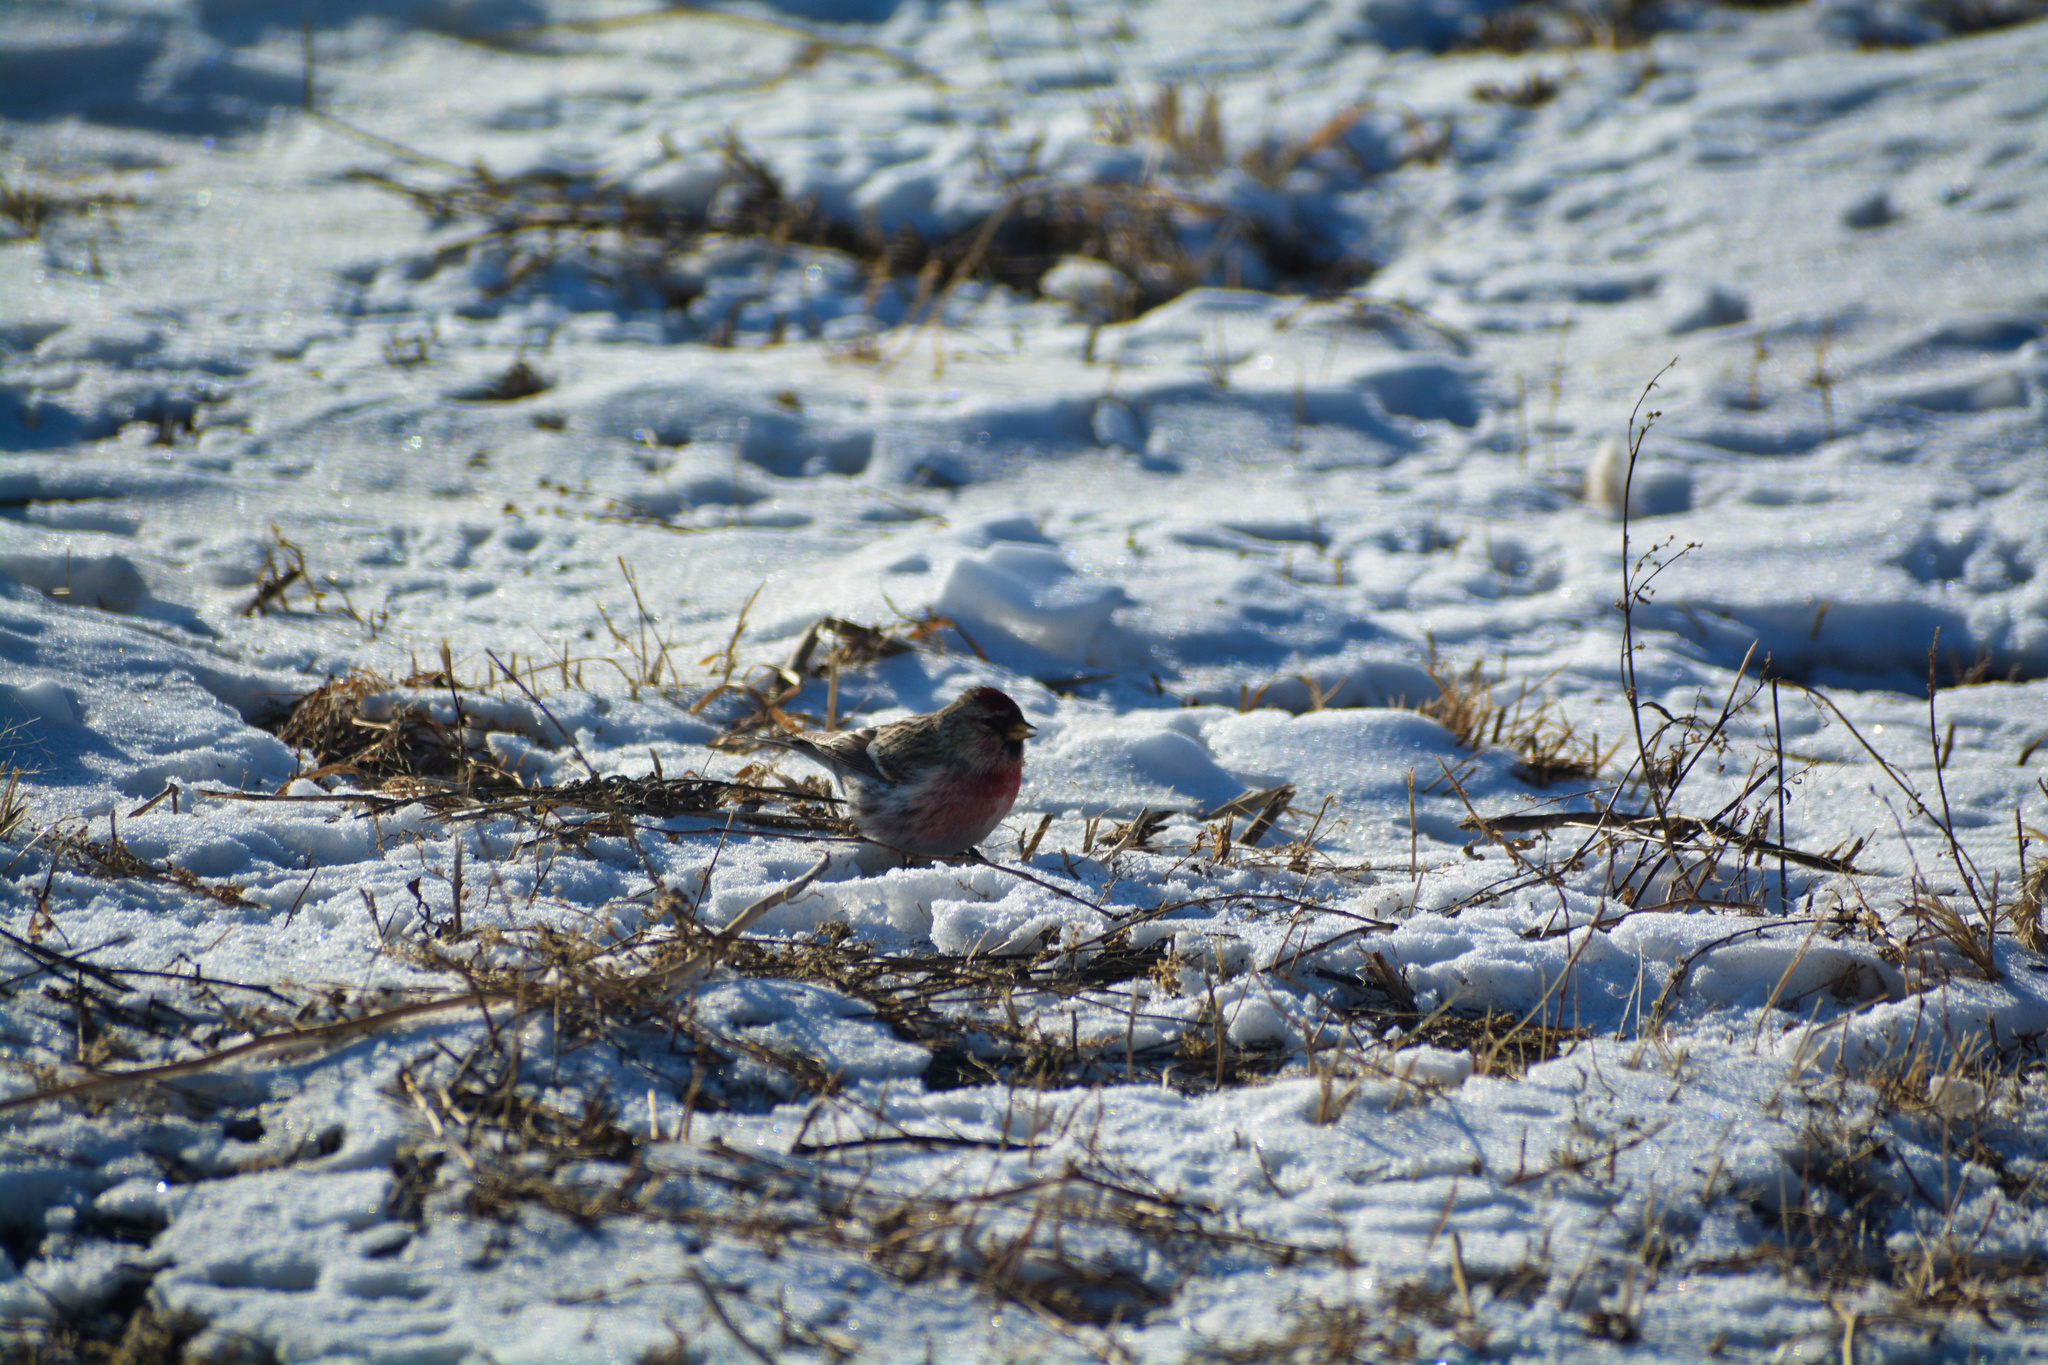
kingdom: Animalia
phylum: Chordata
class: Aves
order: Passeriformes
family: Fringillidae
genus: Acanthis
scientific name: Acanthis flammea
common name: Common redpoll
